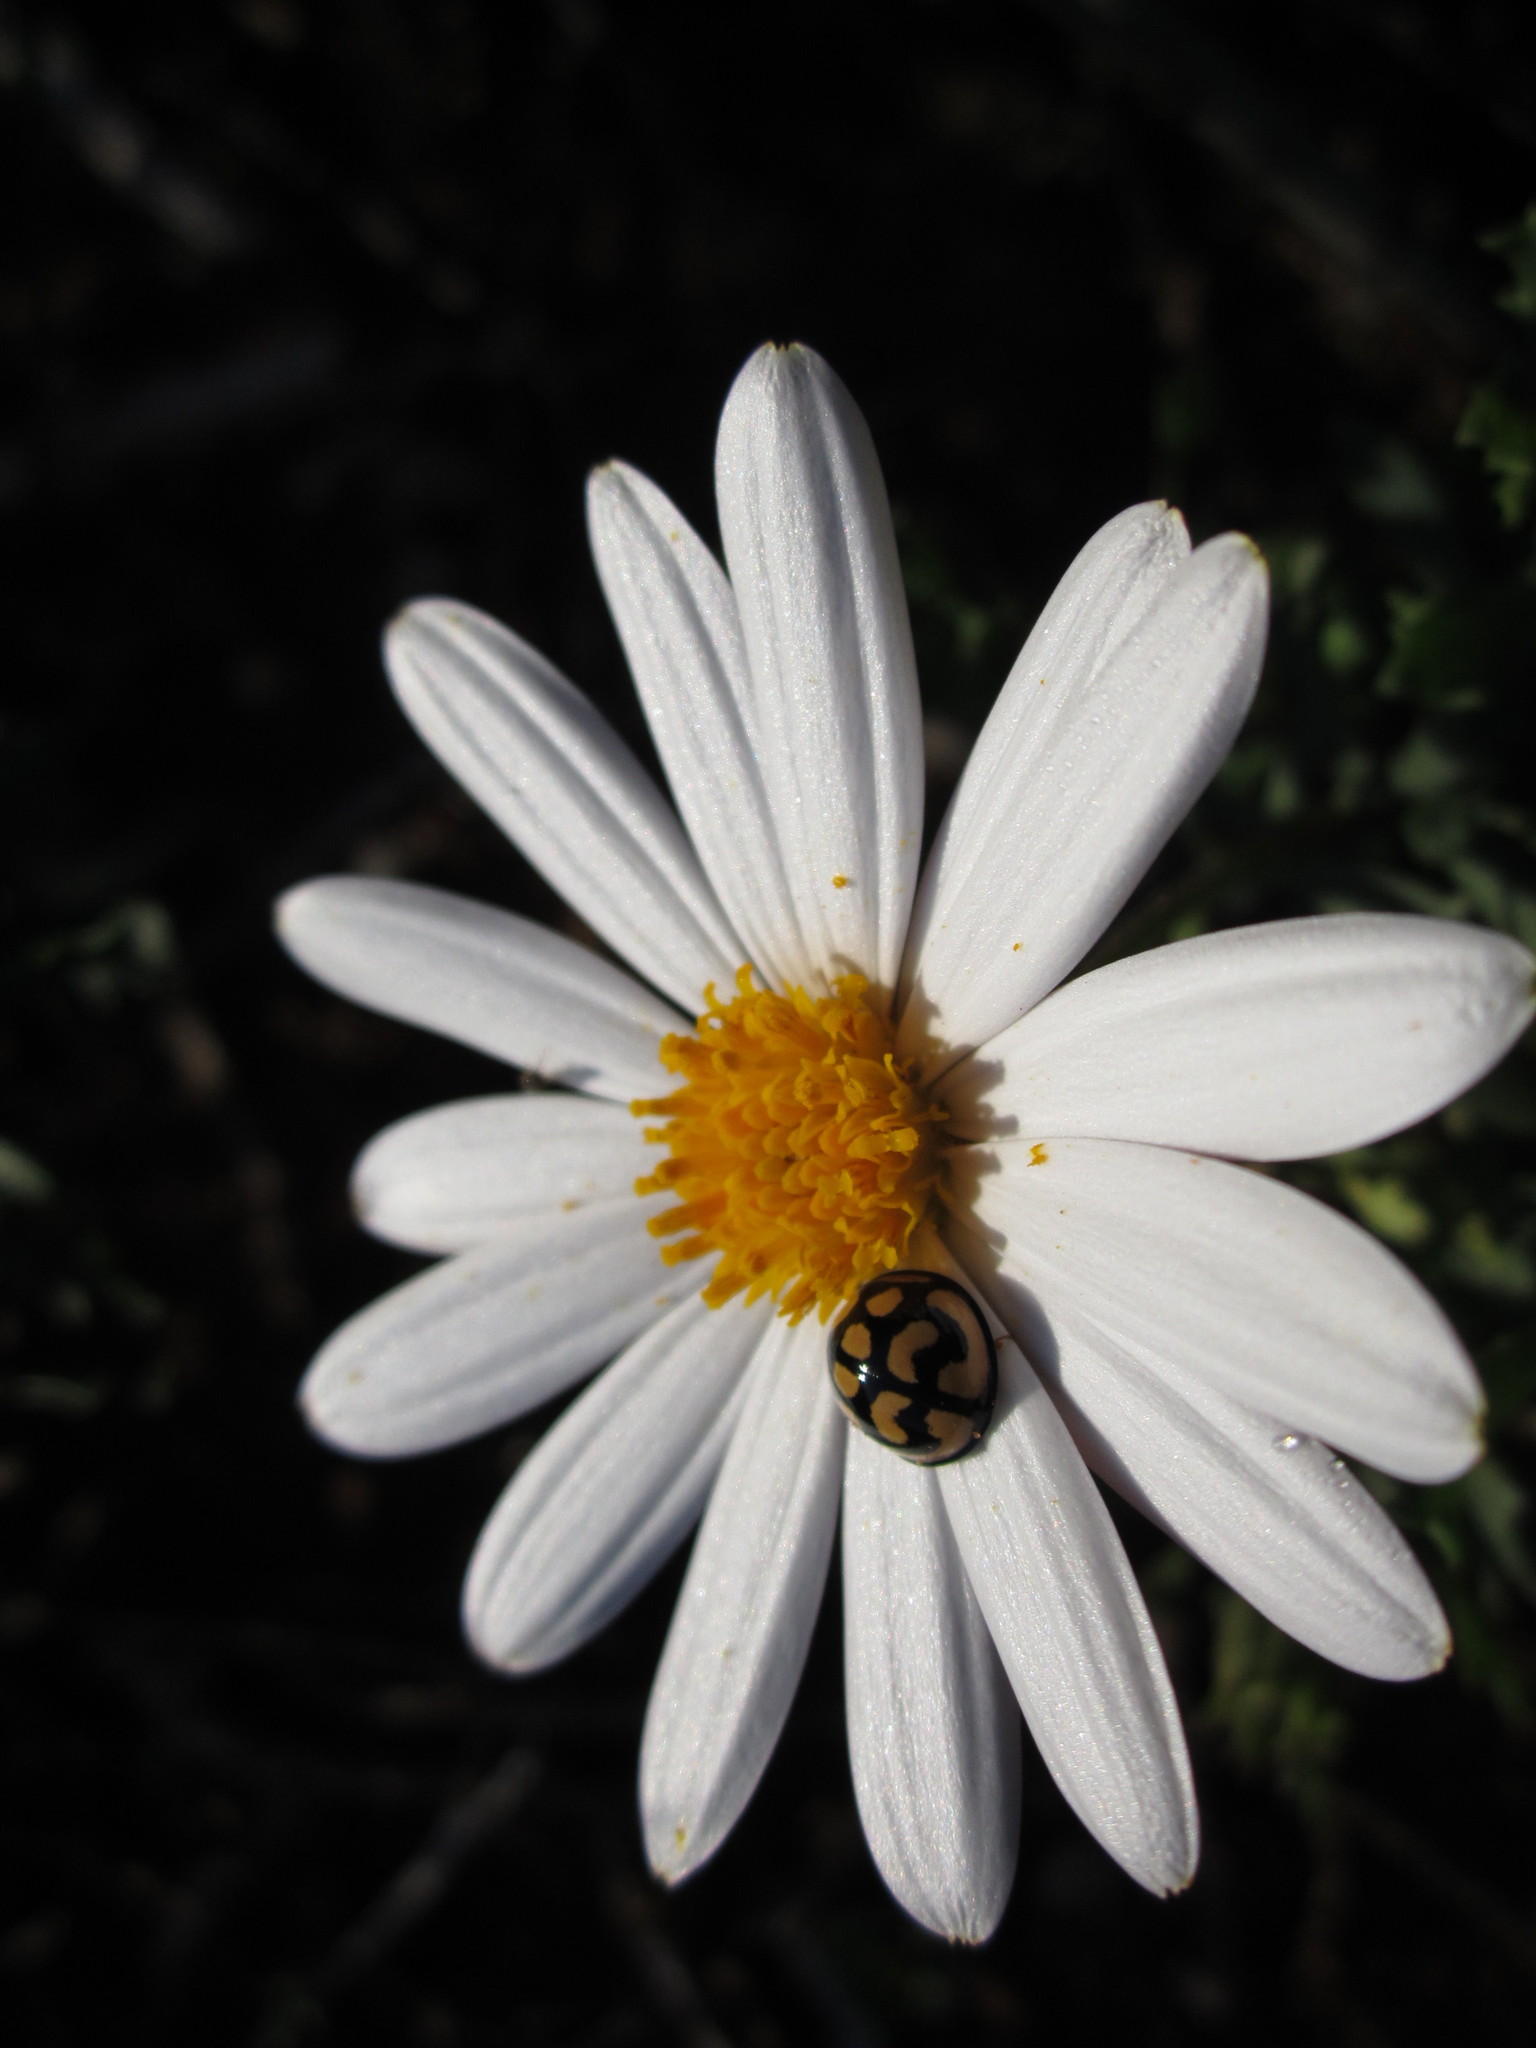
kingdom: Animalia
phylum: Arthropoda
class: Insecta
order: Coleoptera
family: Coccinellidae
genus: Cheilomenes
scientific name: Cheilomenes lunata
